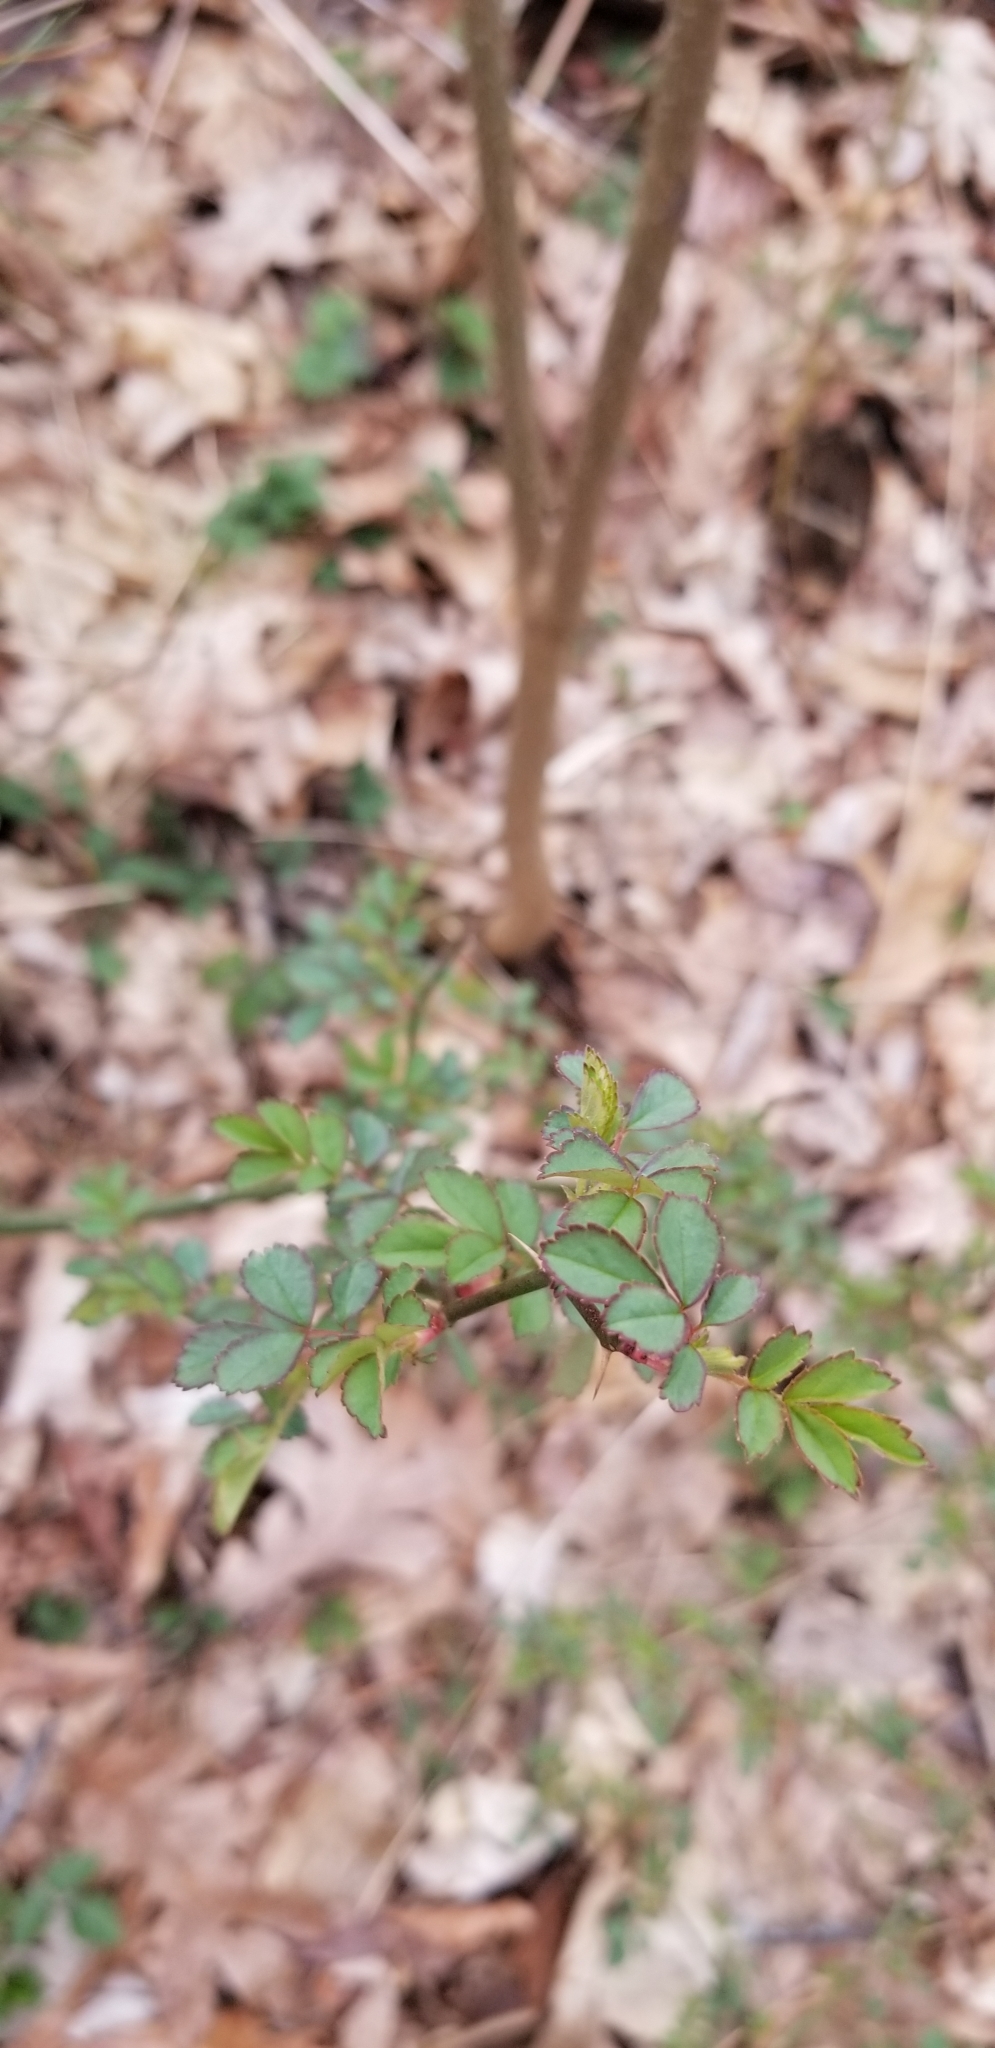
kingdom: Plantae
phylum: Tracheophyta
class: Magnoliopsida
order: Rosales
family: Rosaceae
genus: Rosa
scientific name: Rosa multiflora
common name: Multiflora rose
